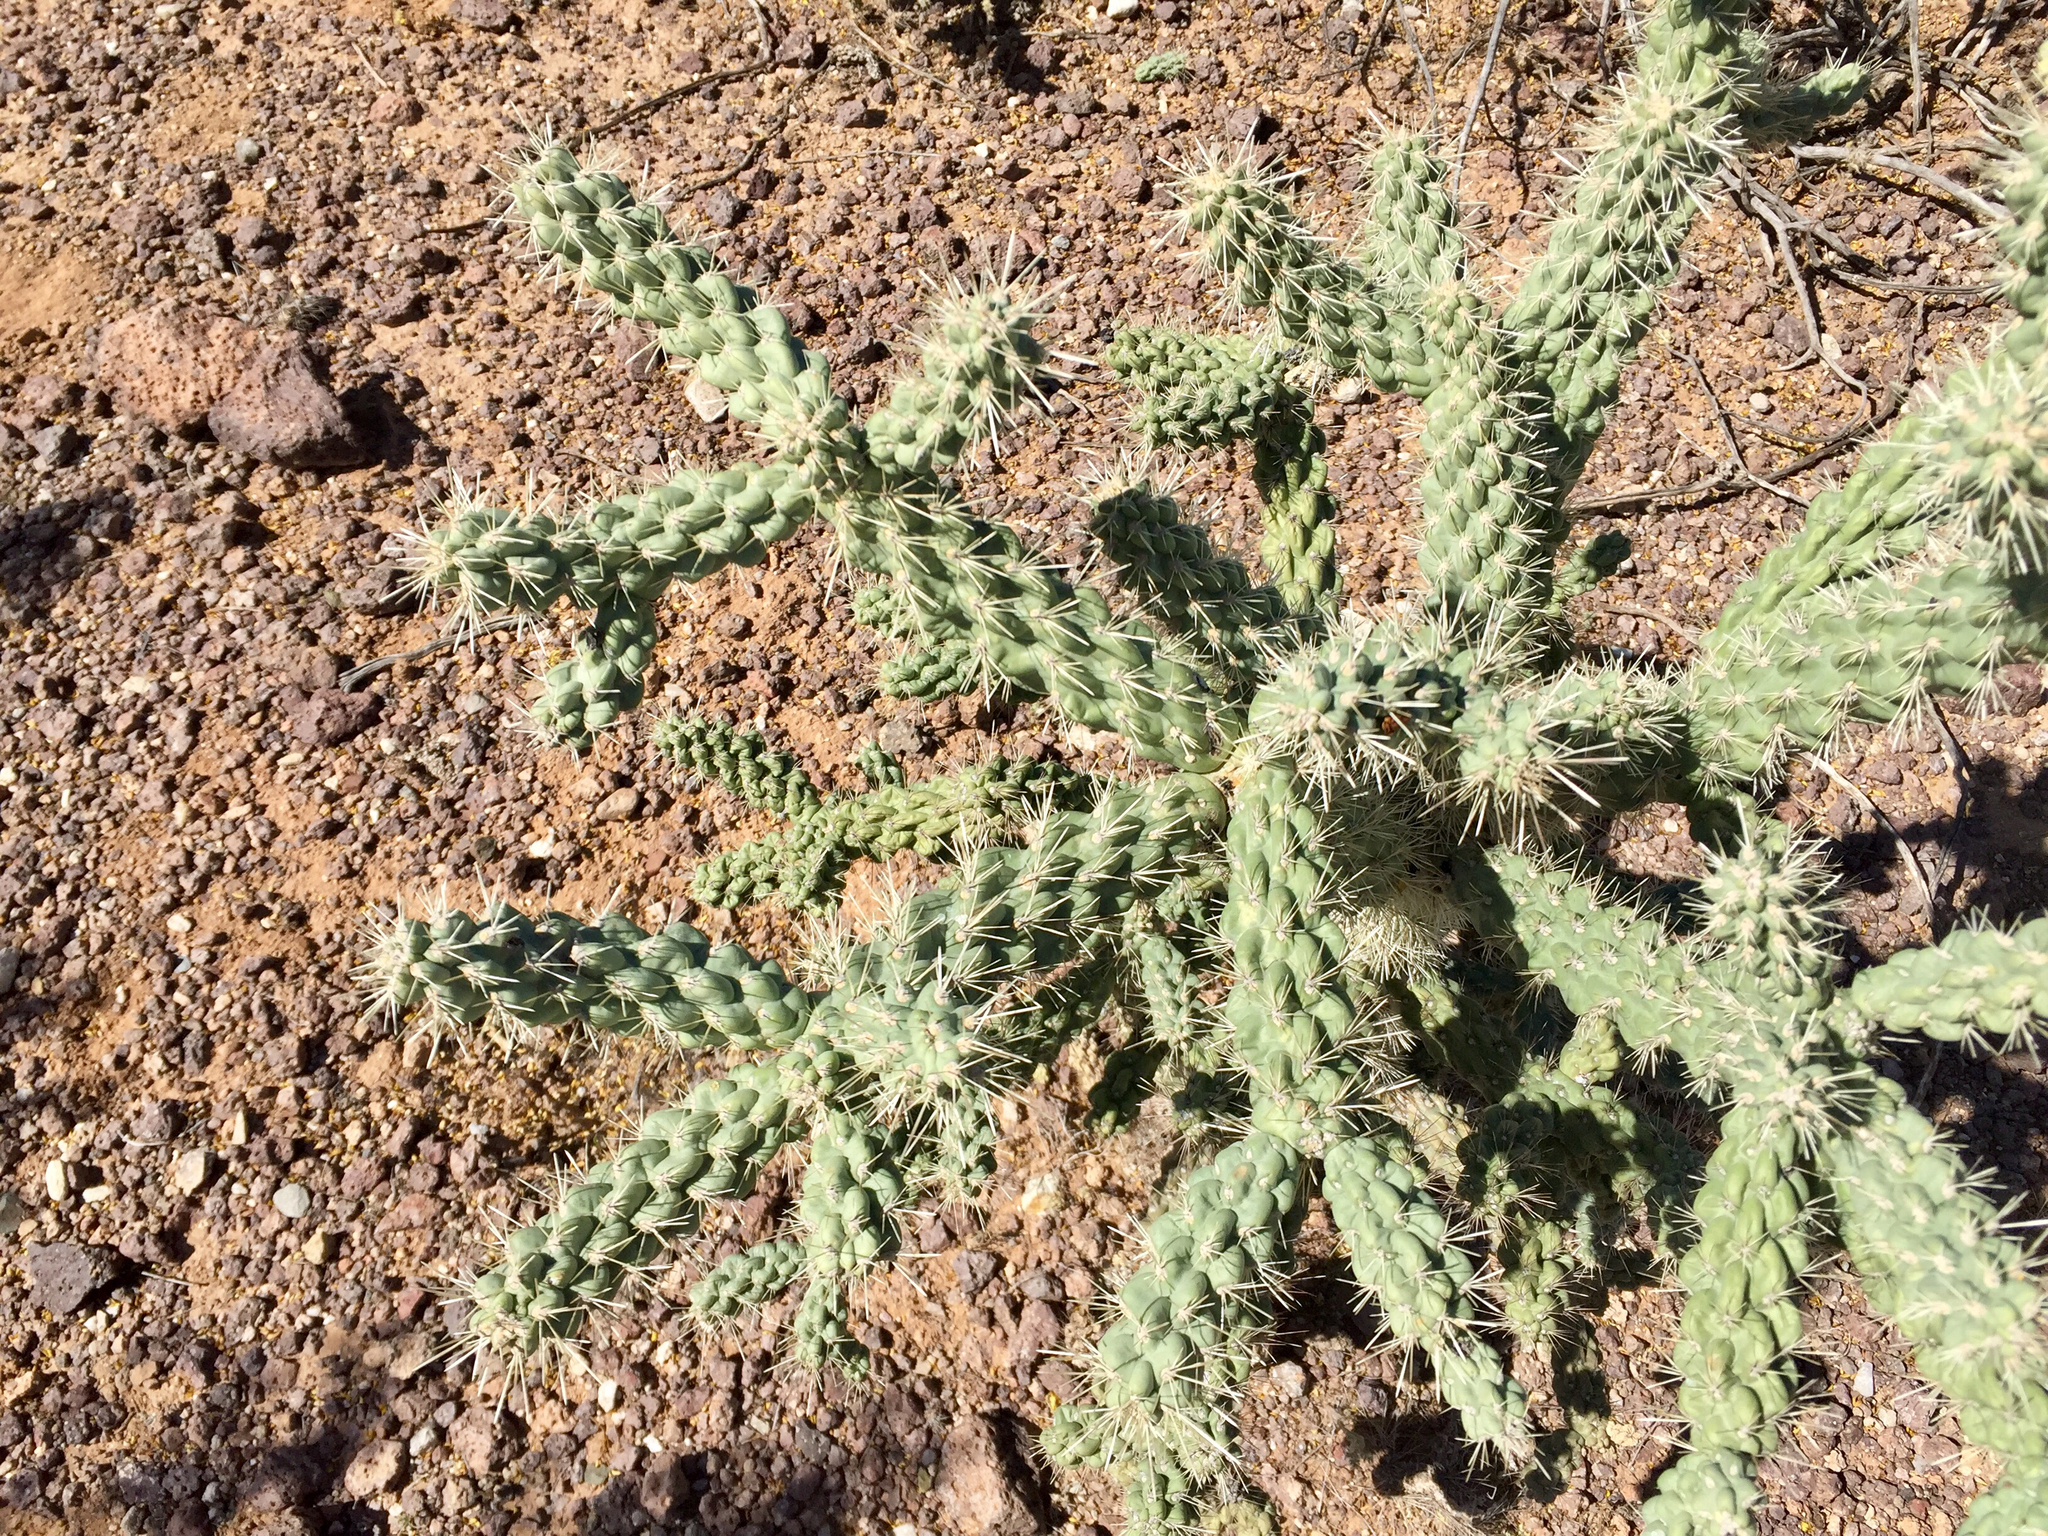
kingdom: Plantae
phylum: Tracheophyta
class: Magnoliopsida
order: Caryophyllales
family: Cactaceae
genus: Cylindropuntia
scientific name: Cylindropuntia fulgida
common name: Jumping cholla
